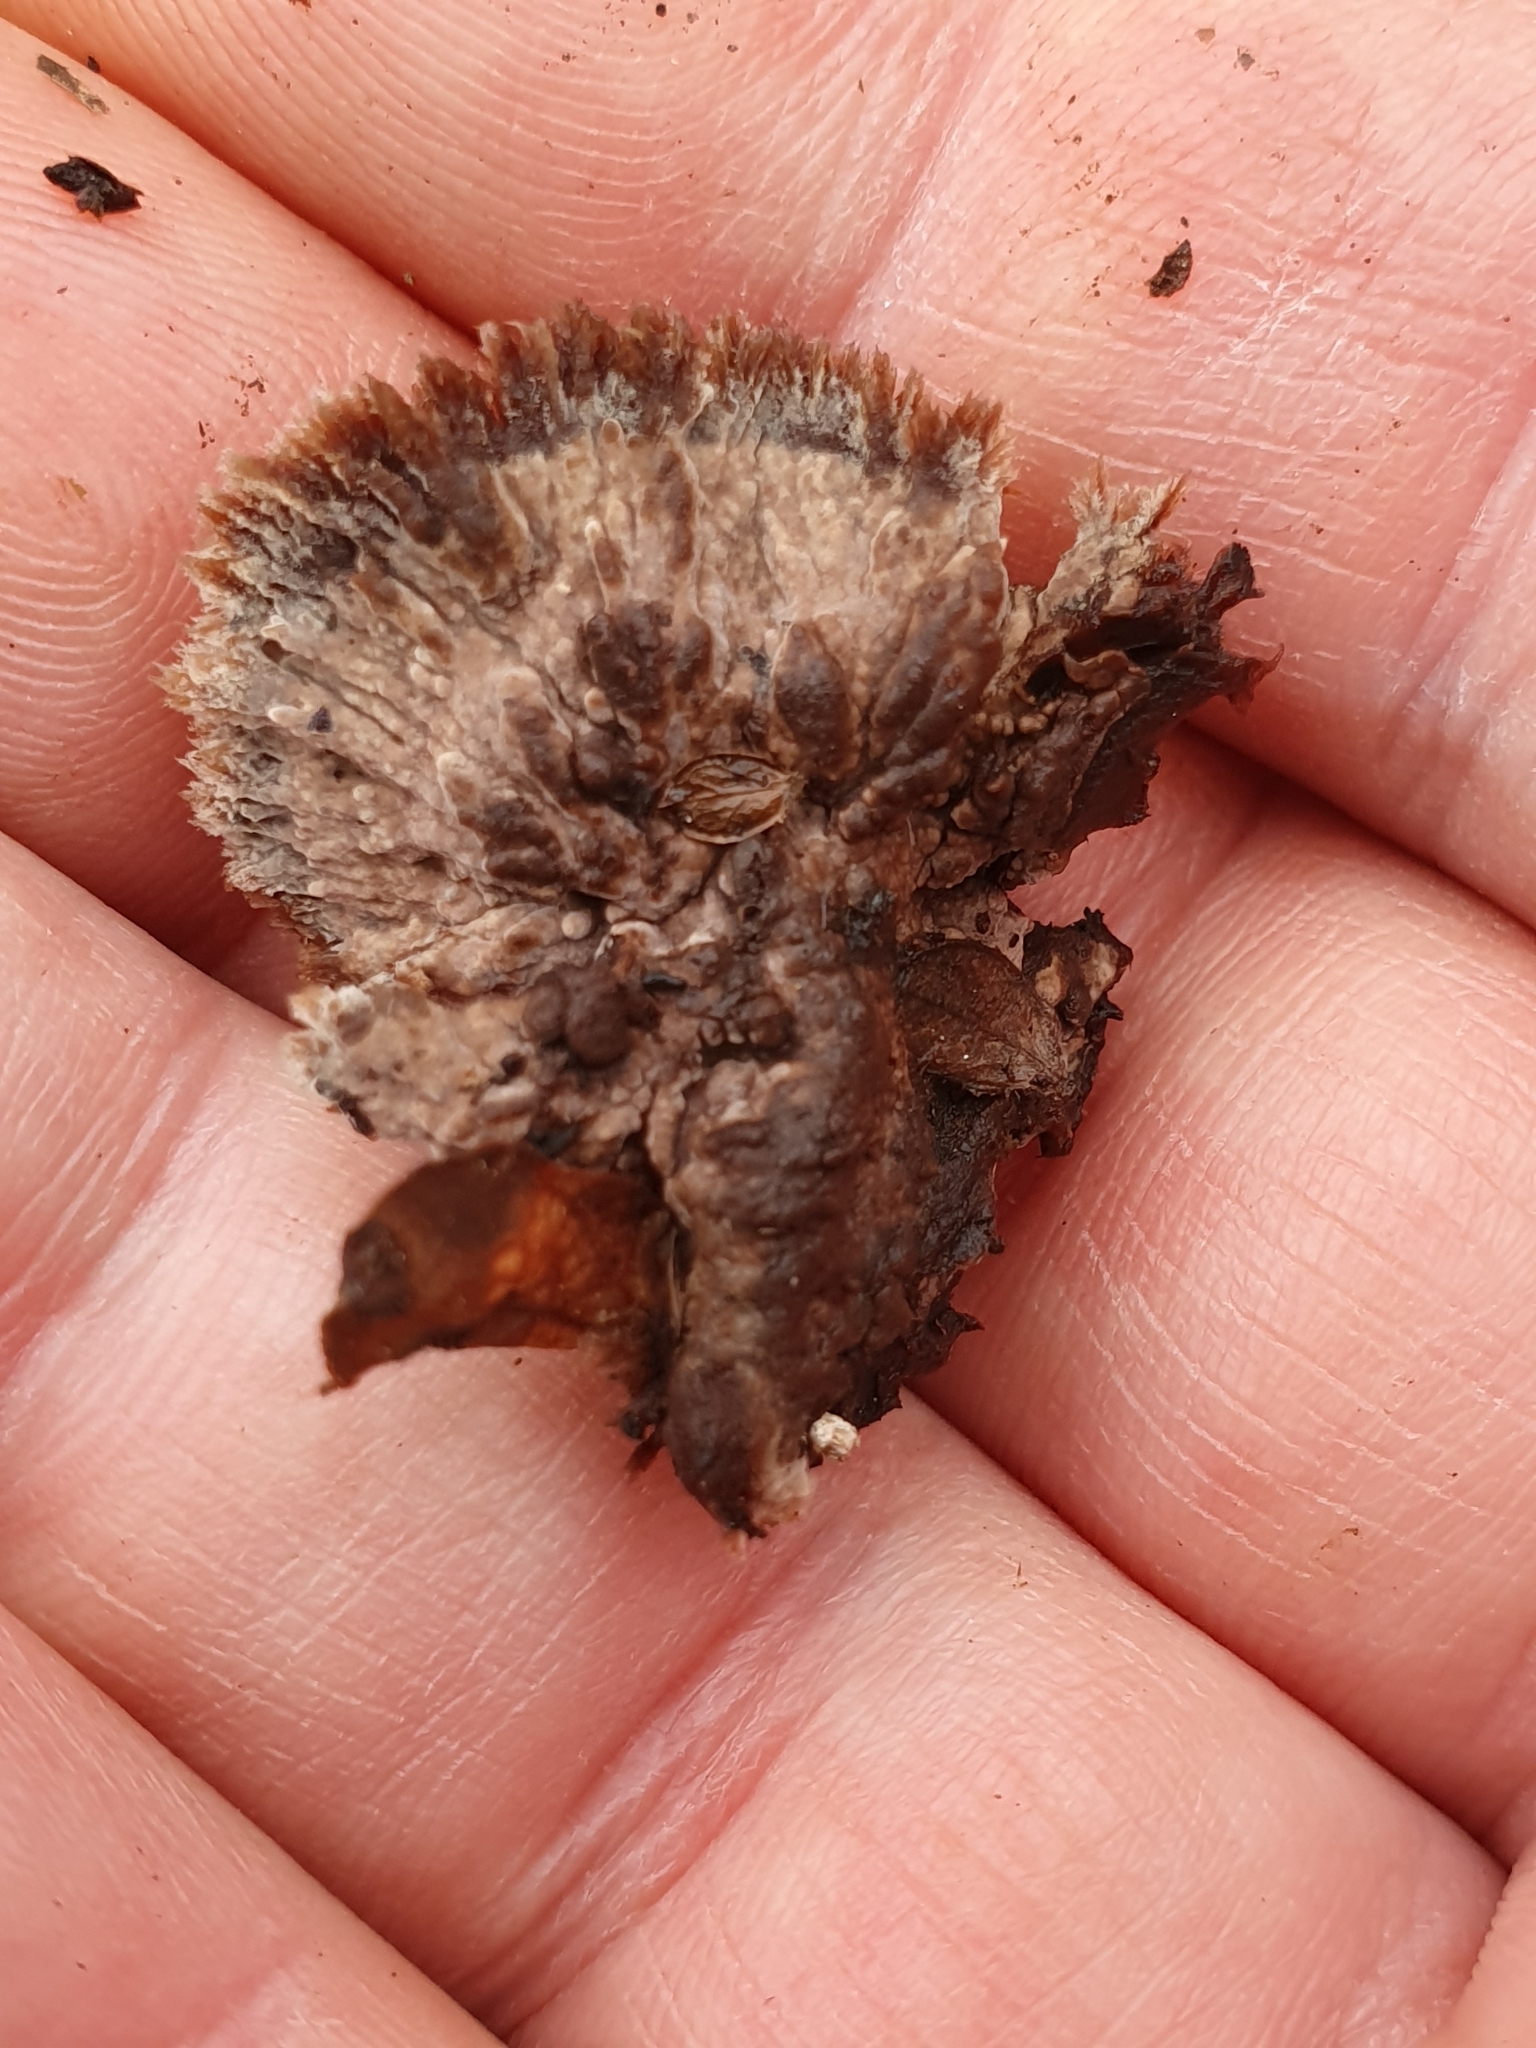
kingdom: Fungi
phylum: Basidiomycota
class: Agaricomycetes
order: Thelephorales
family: Thelephoraceae
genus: Thelephora
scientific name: Thelephora terrestris
